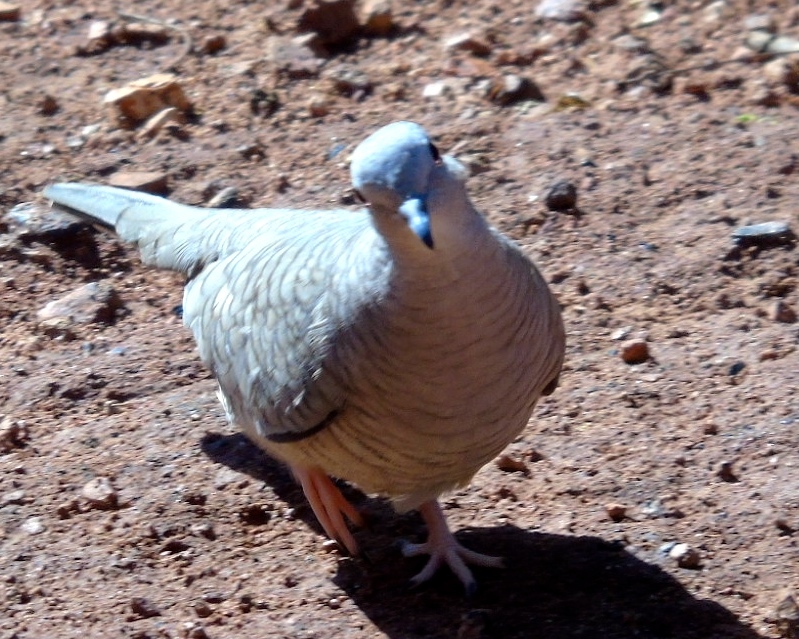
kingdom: Animalia
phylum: Chordata
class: Aves
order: Columbiformes
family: Columbidae
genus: Columbina
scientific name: Columbina inca
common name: Inca dove
